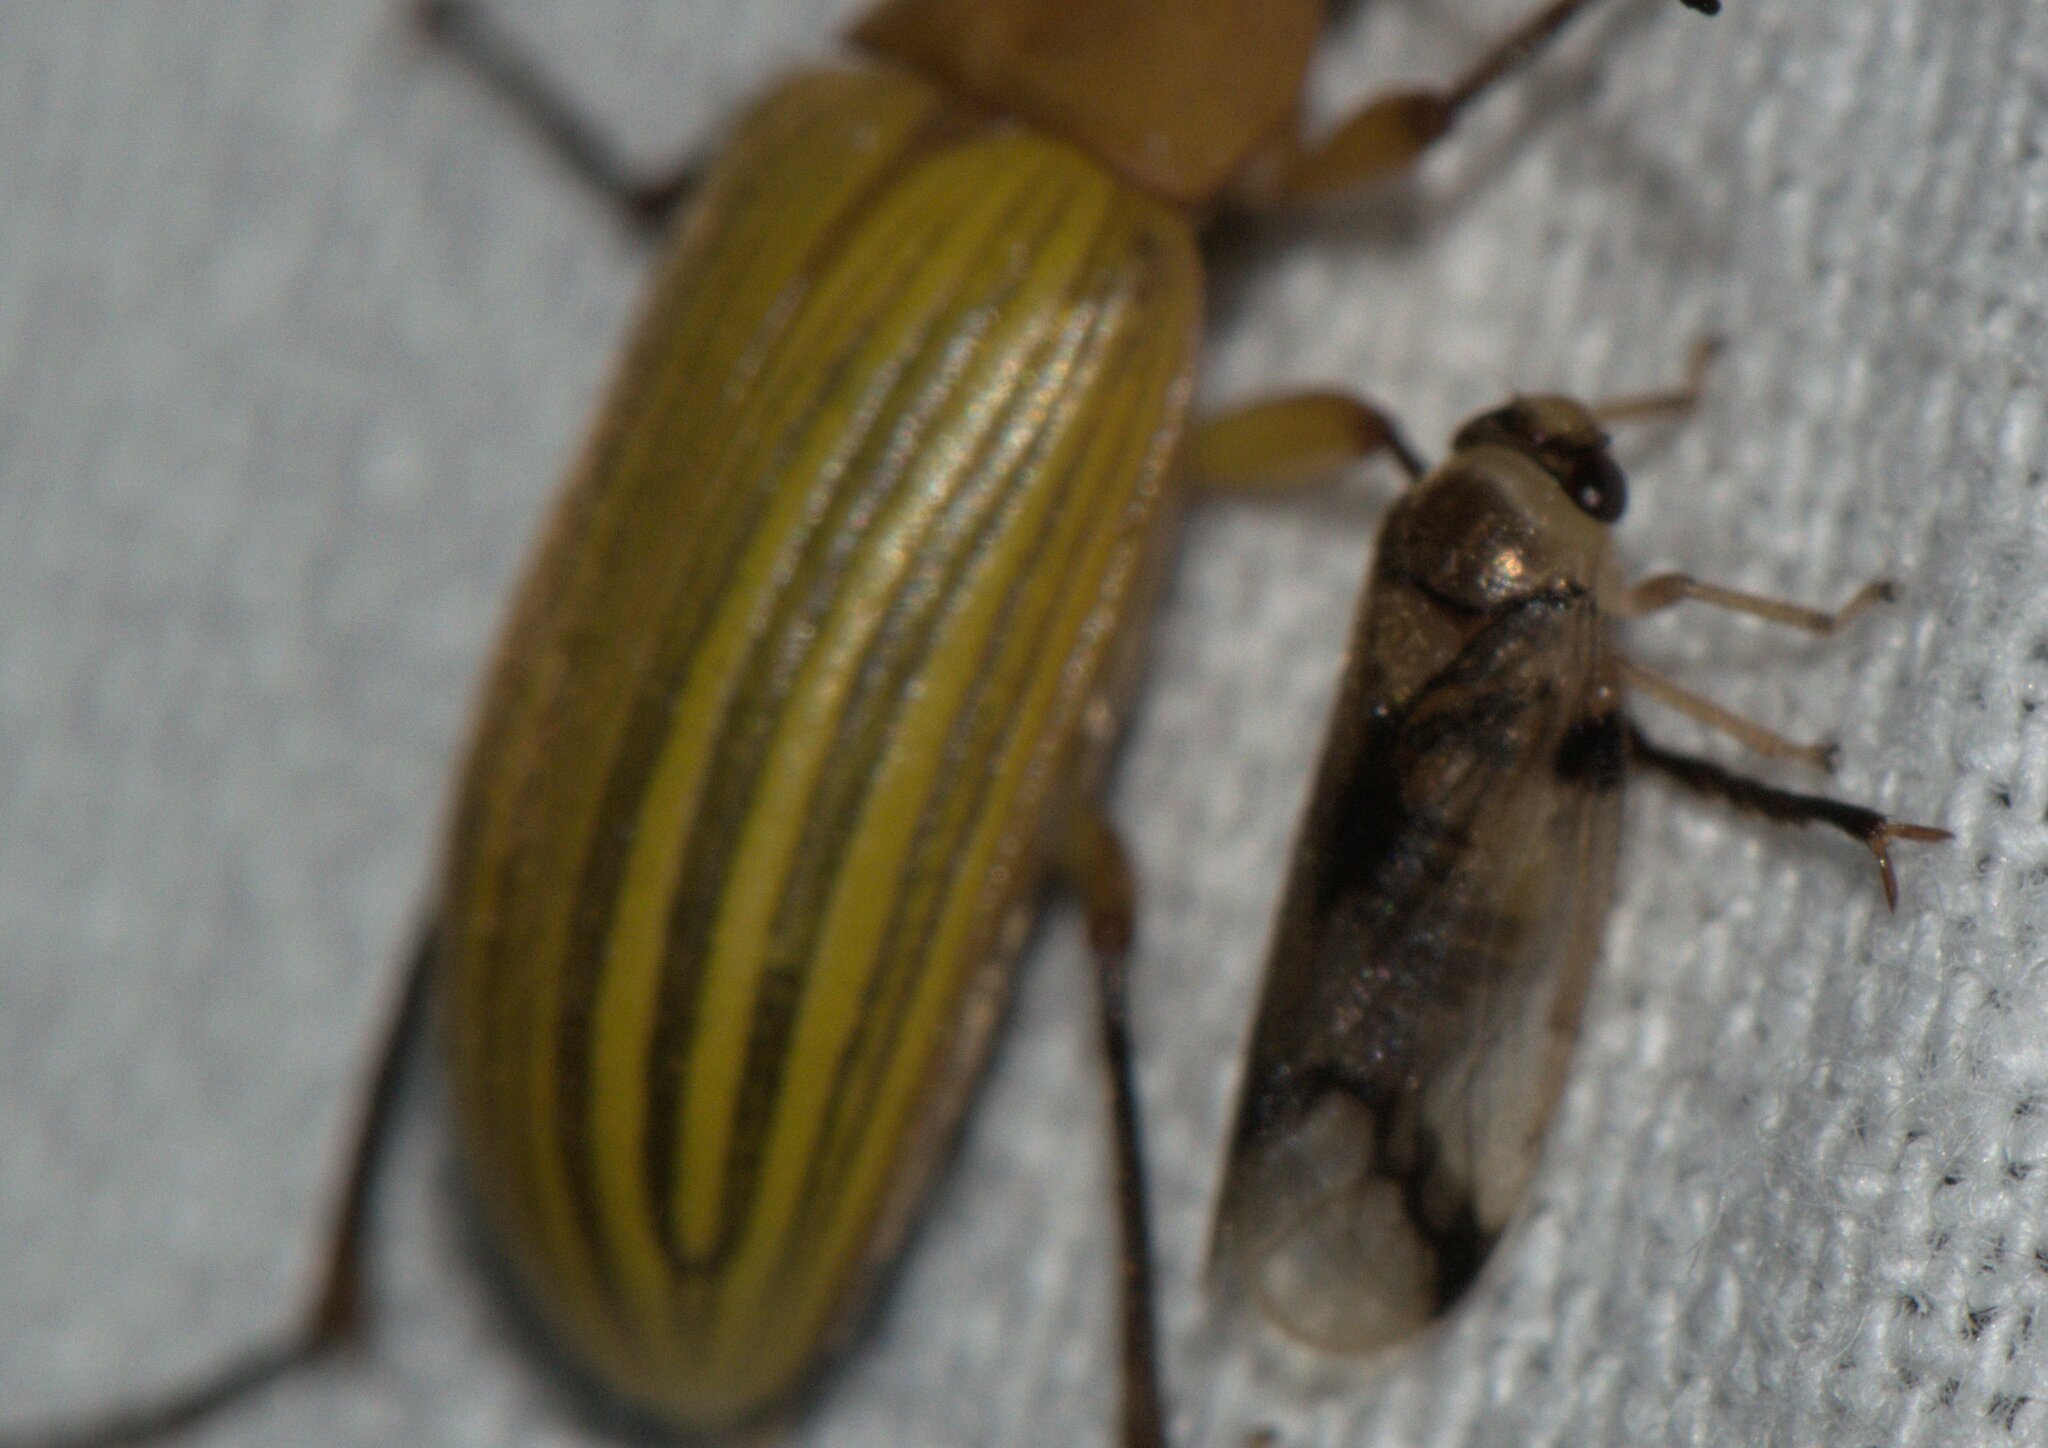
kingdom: Animalia
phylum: Arthropoda
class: Insecta
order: Coleoptera
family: Tenebrionidae
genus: Cistelomorpha
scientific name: Cistelomorpha
